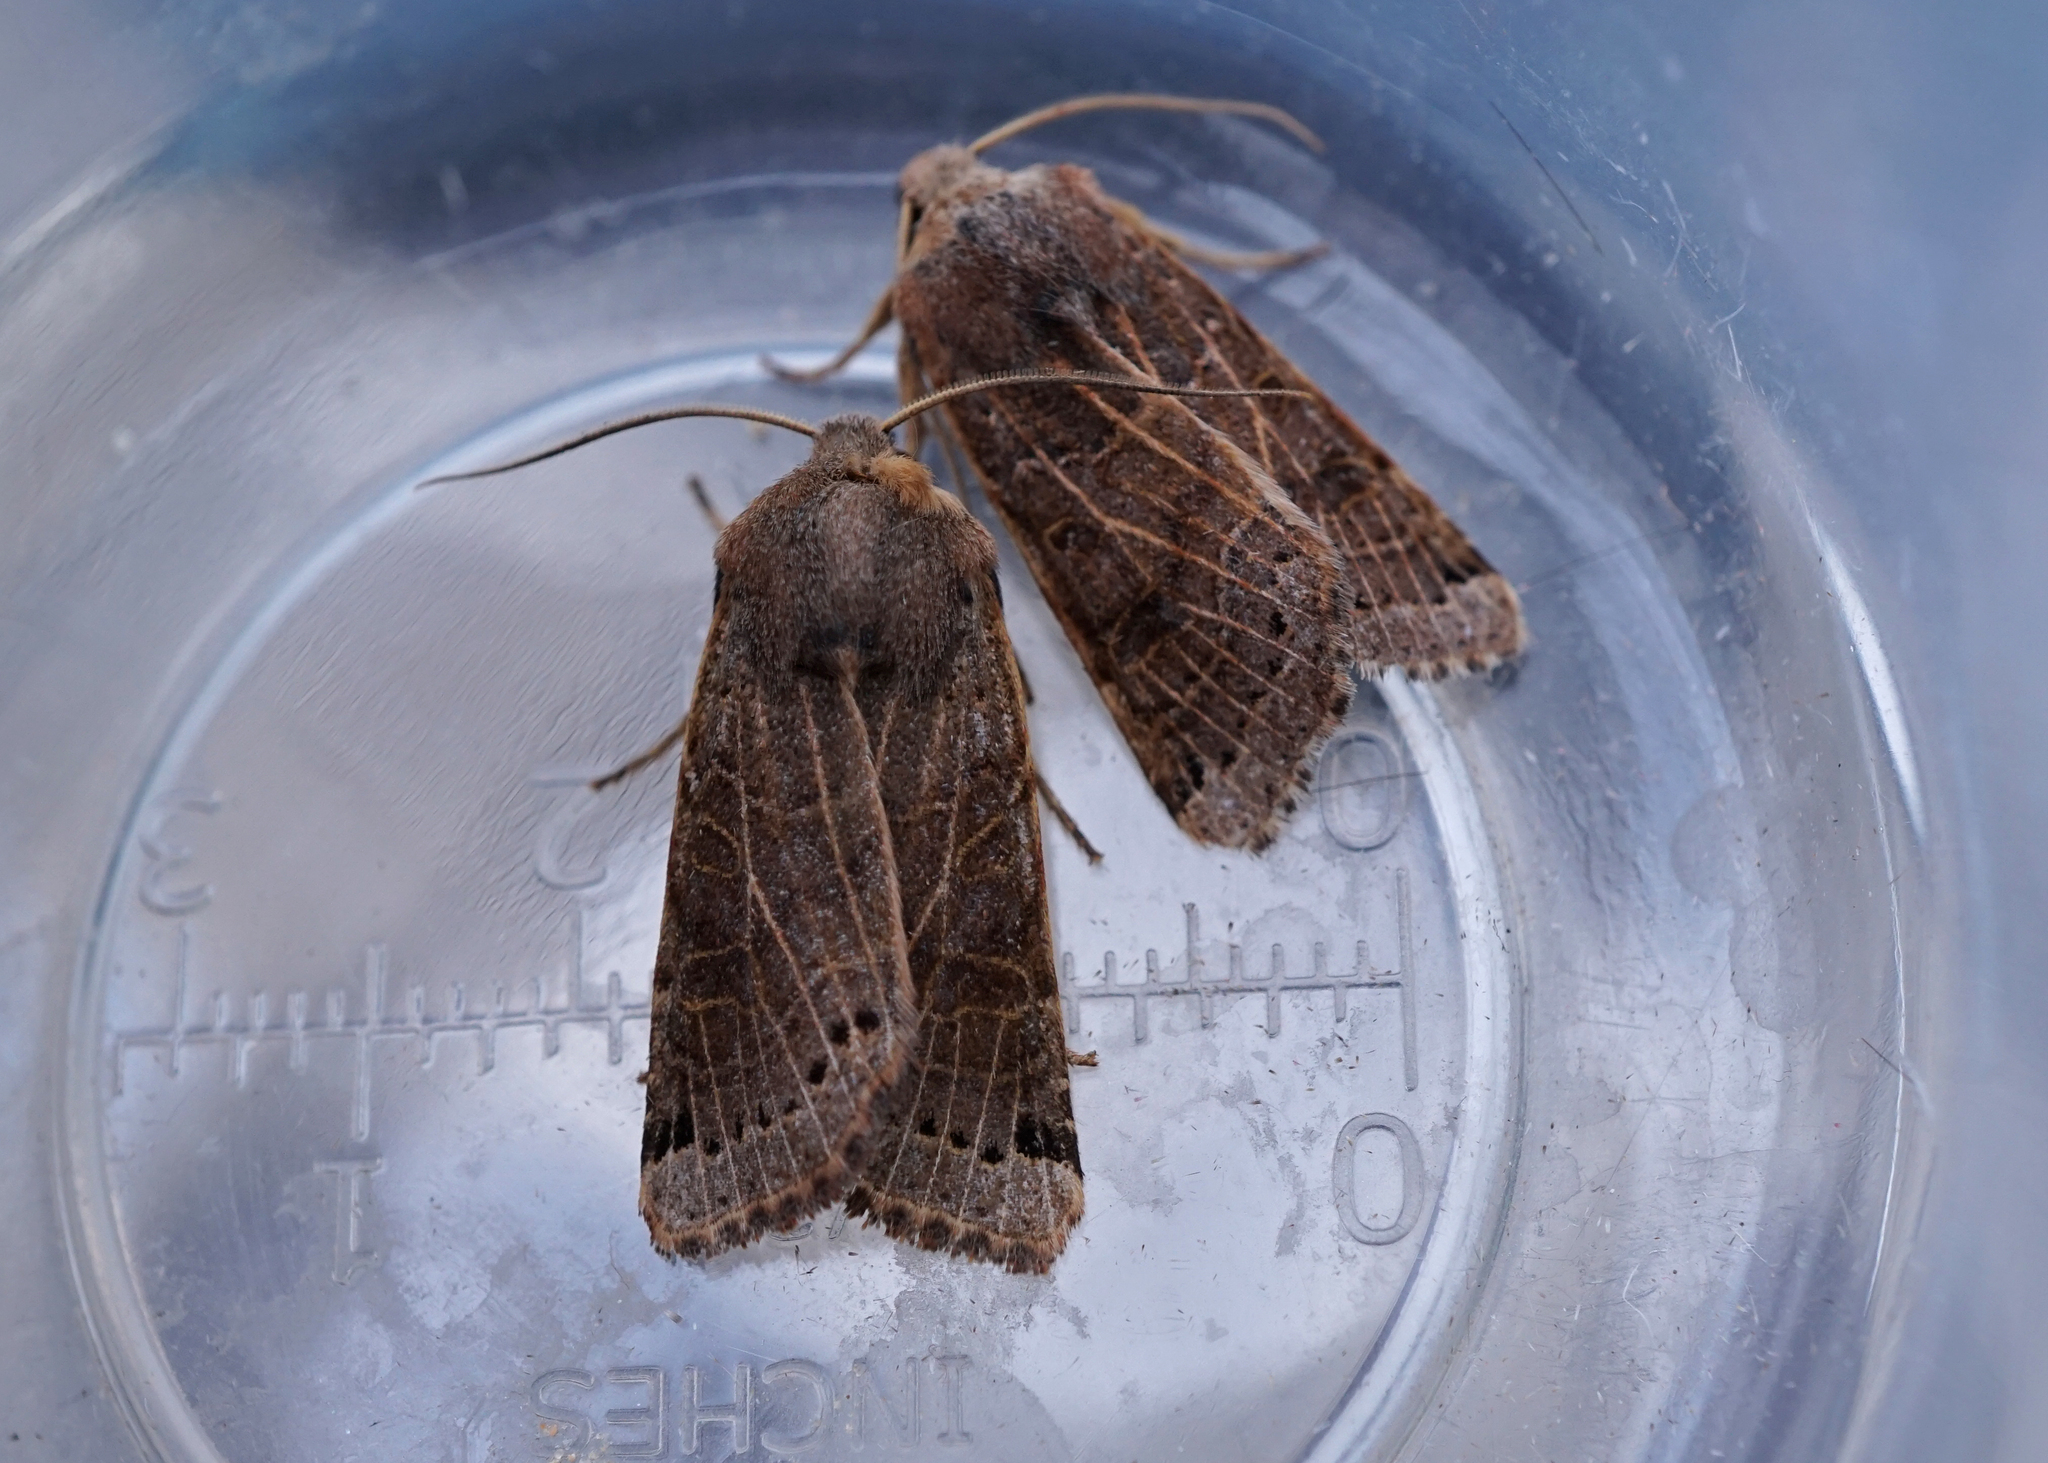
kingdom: Animalia
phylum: Arthropoda
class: Insecta
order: Lepidoptera
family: Noctuidae
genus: Agrochola
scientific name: Agrochola lunosa
